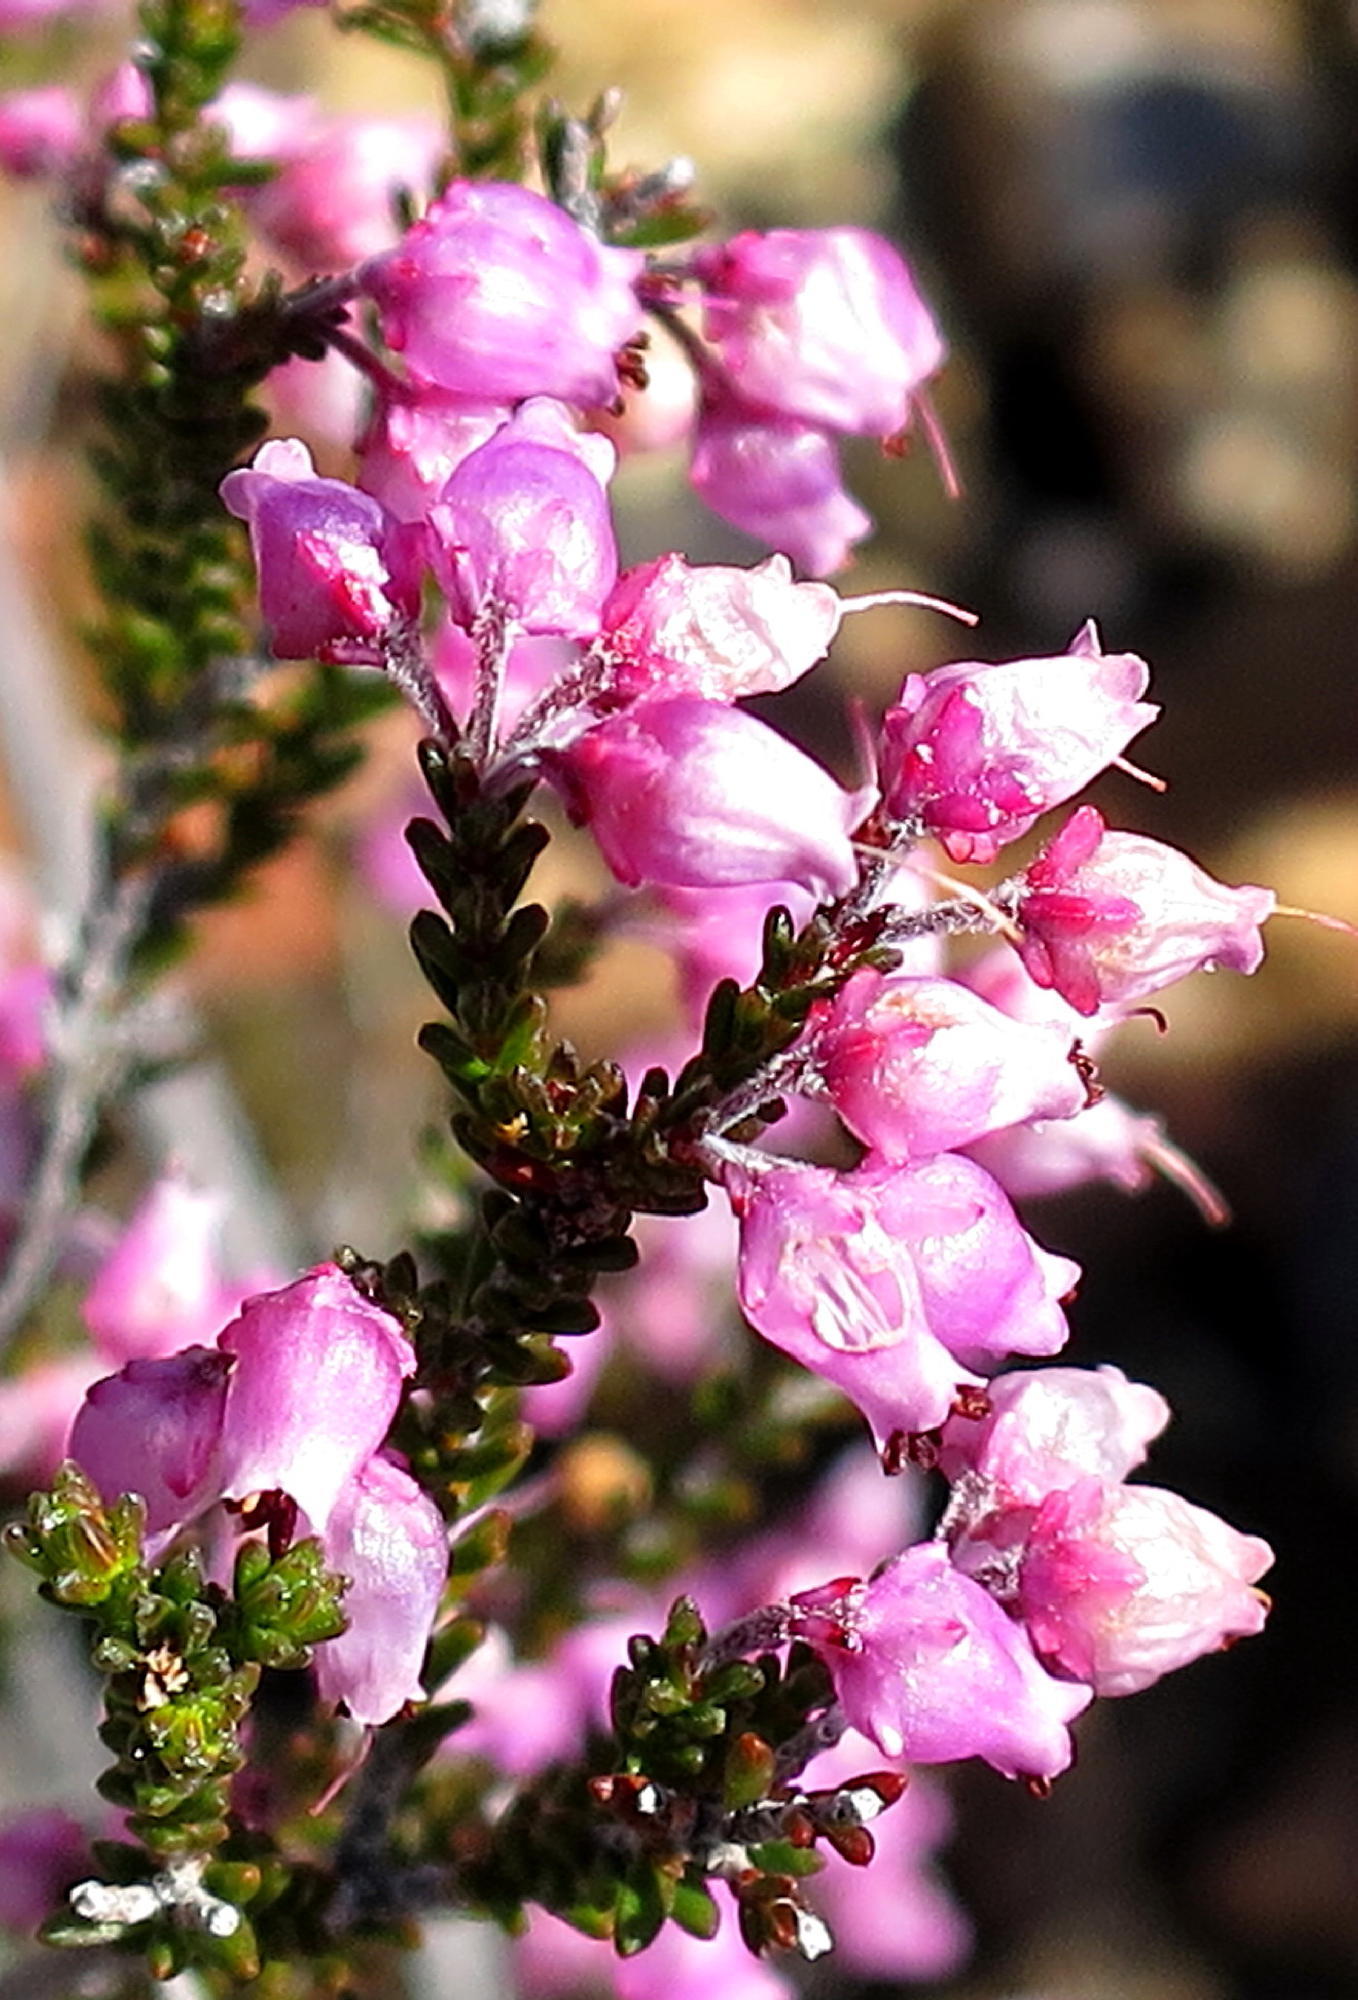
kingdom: Plantae
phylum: Tracheophyta
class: Magnoliopsida
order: Ericales
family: Ericaceae
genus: Erica
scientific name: Erica vlokii
